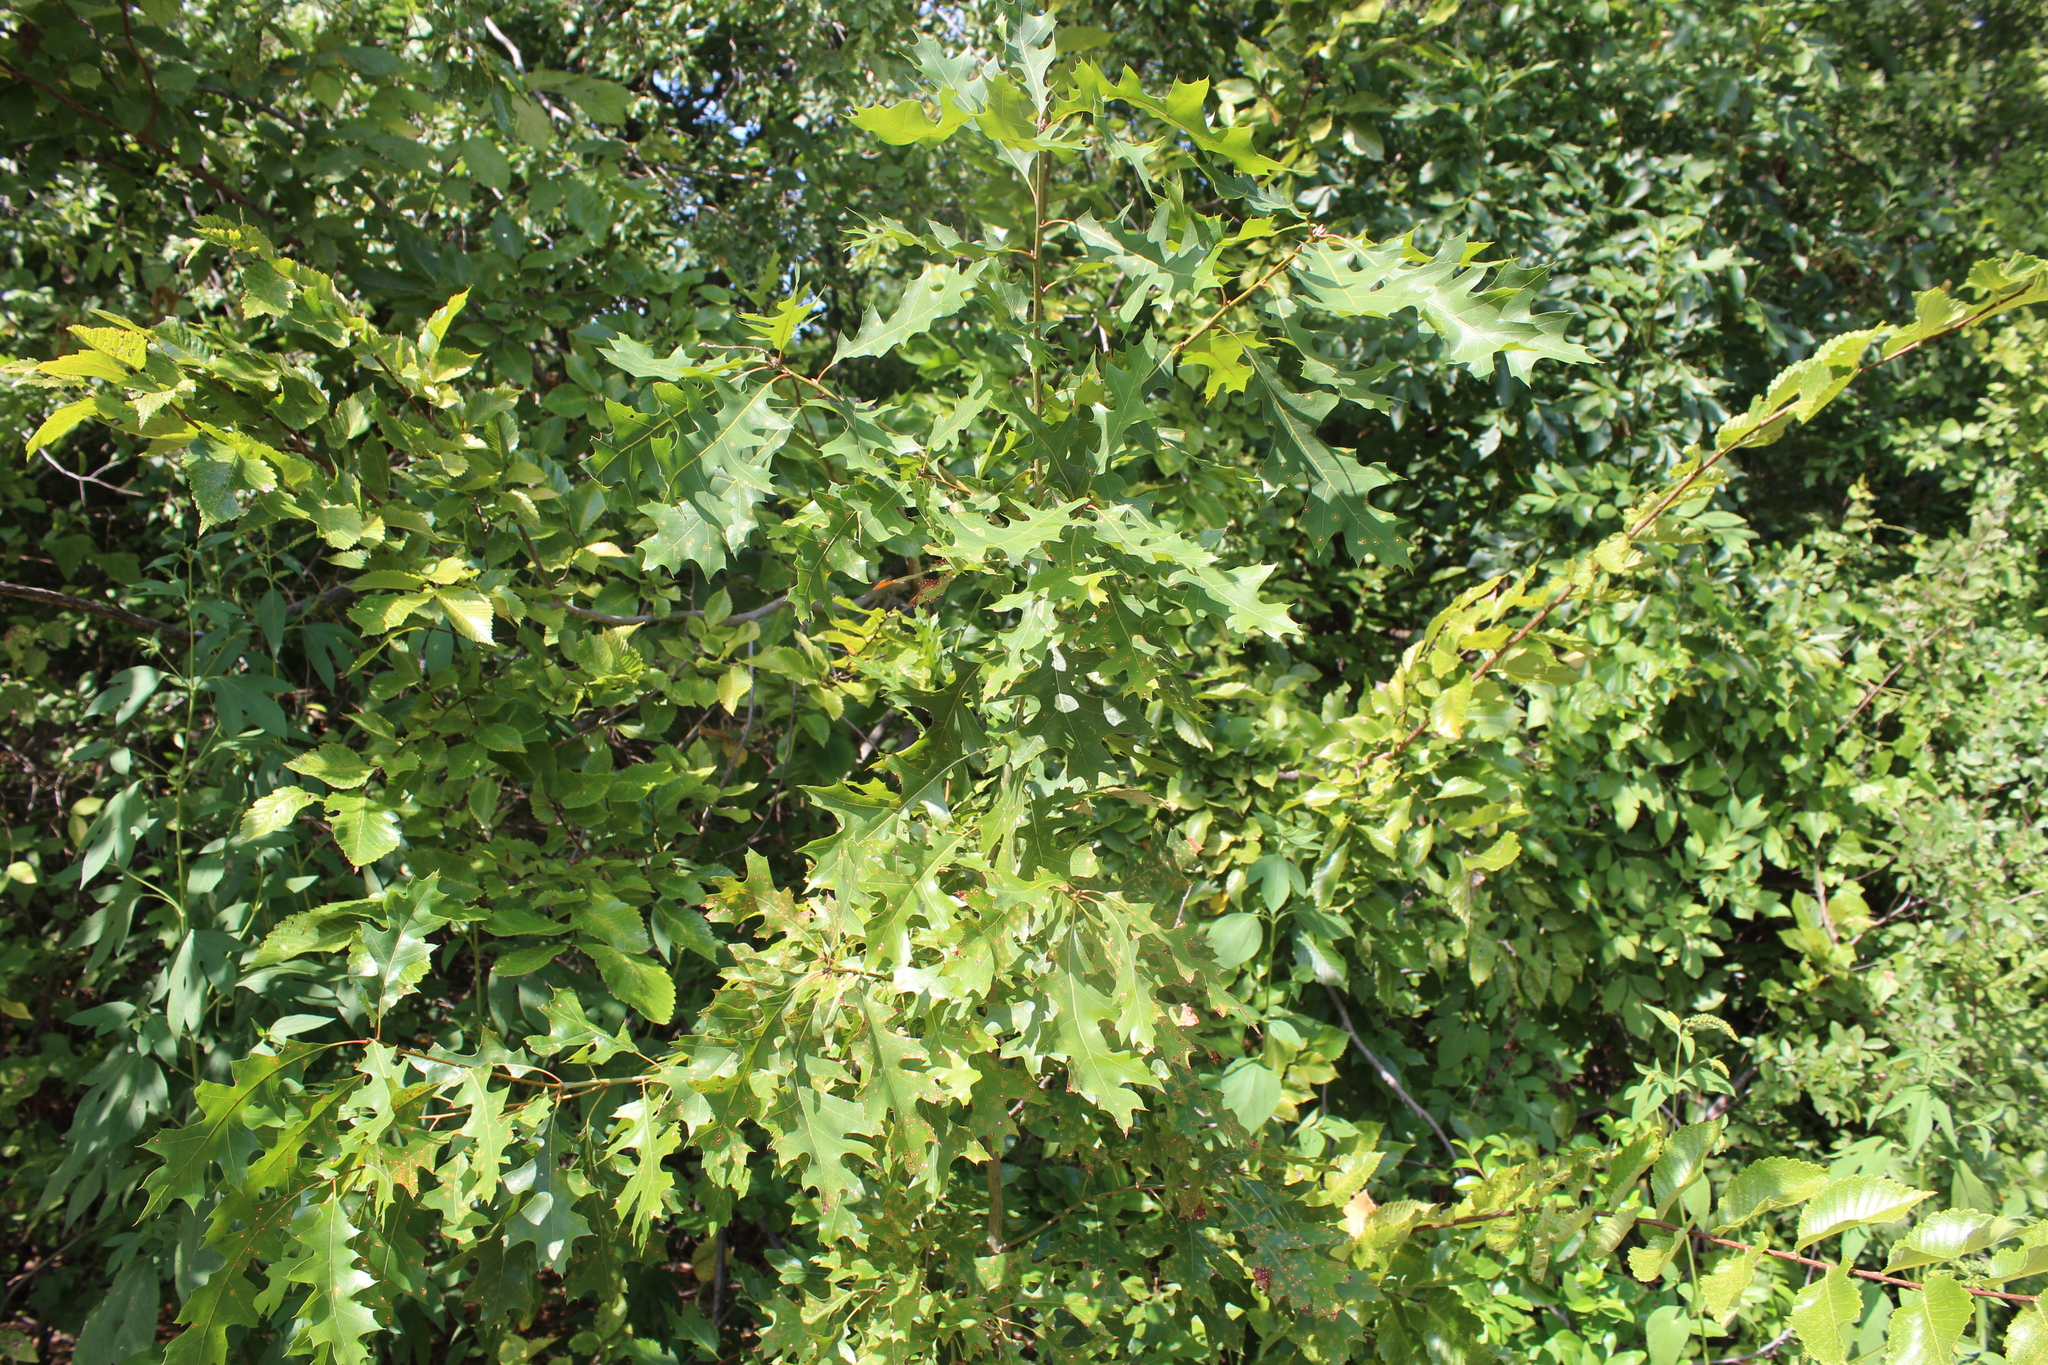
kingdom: Plantae
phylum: Tracheophyta
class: Magnoliopsida
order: Fagales
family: Fagaceae
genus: Quercus
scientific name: Quercus
